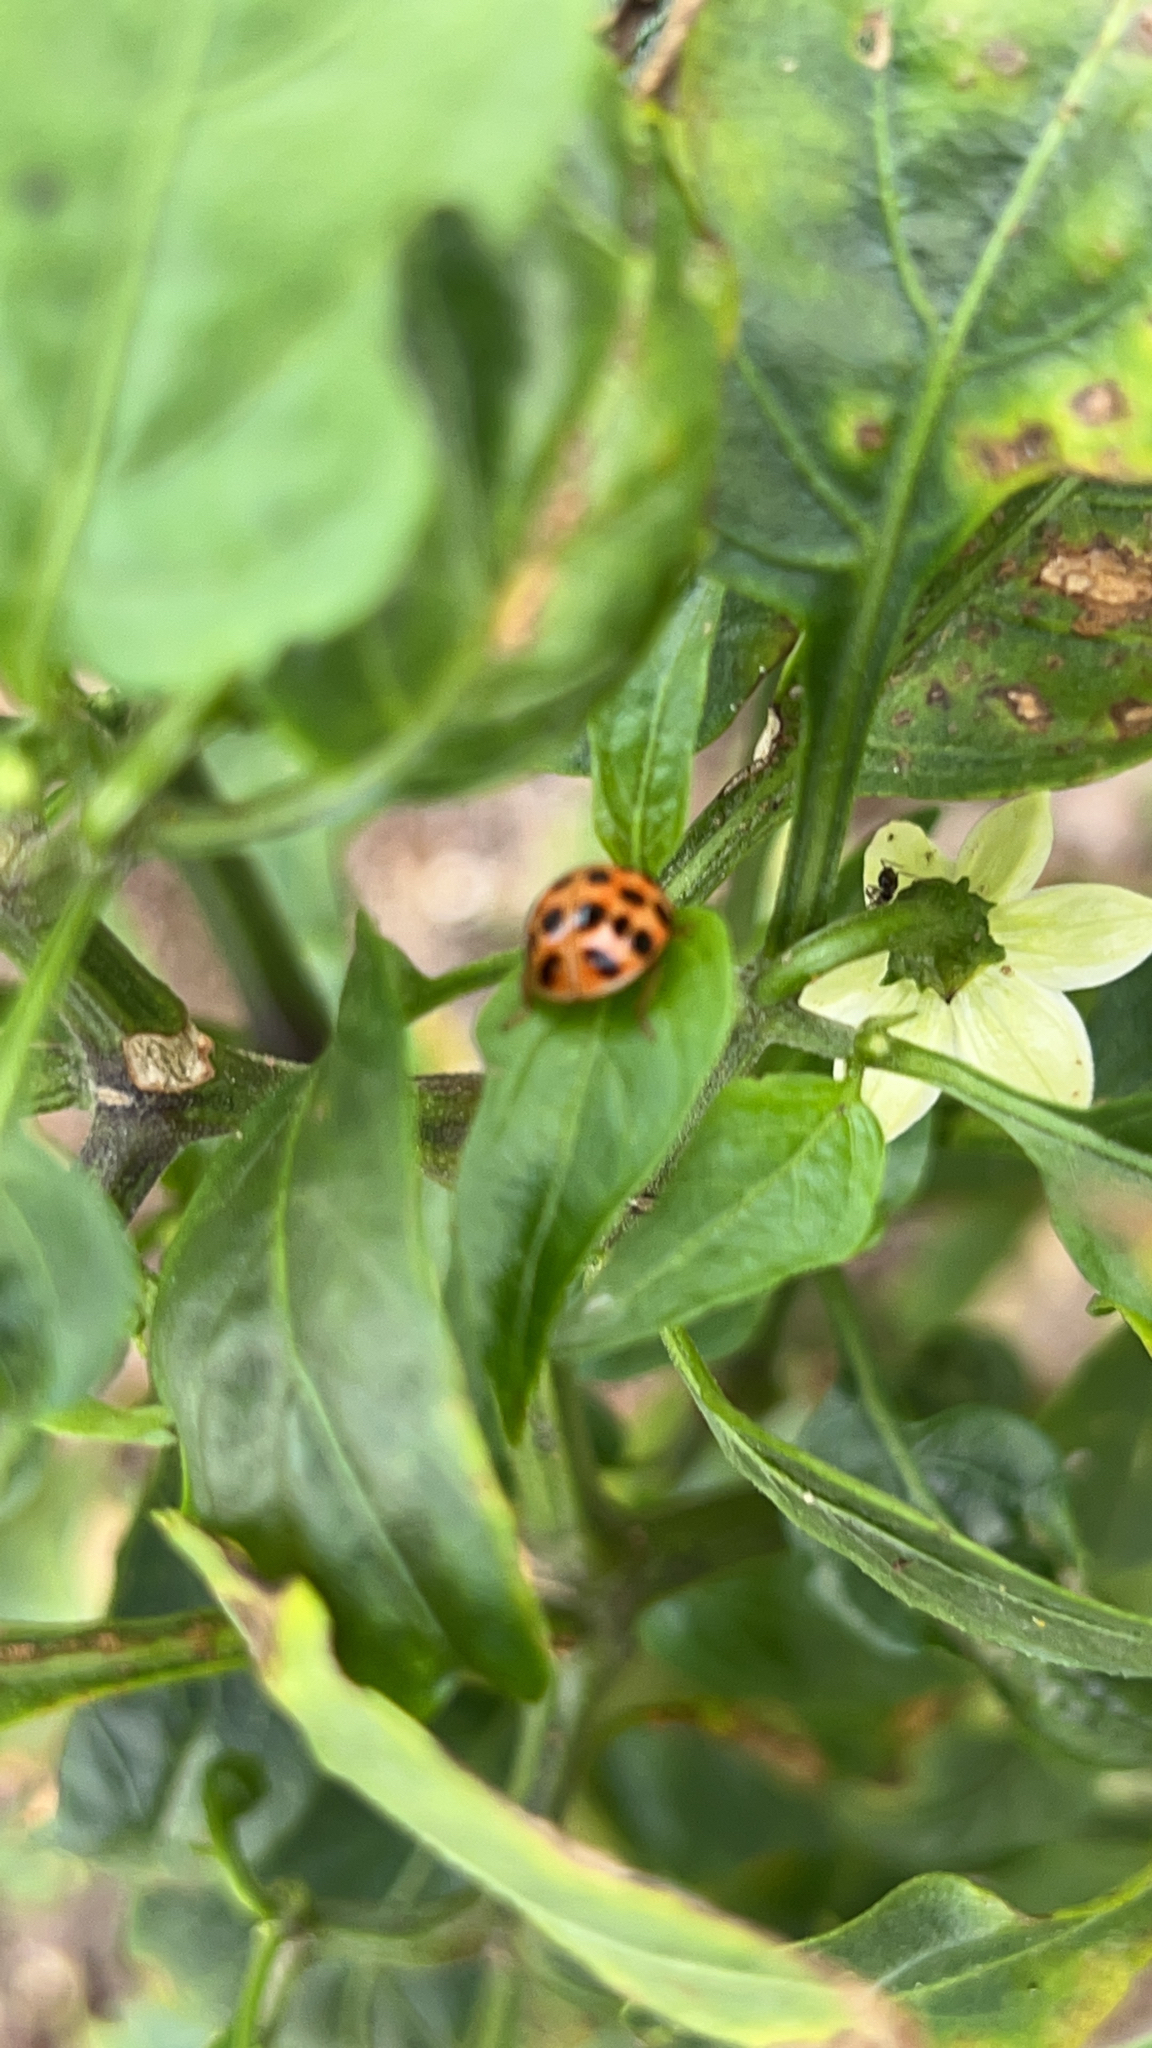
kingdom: Animalia
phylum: Arthropoda
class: Insecta
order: Coleoptera
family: Coccinellidae
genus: Harmonia
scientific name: Harmonia axyridis
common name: Harlequin ladybird
